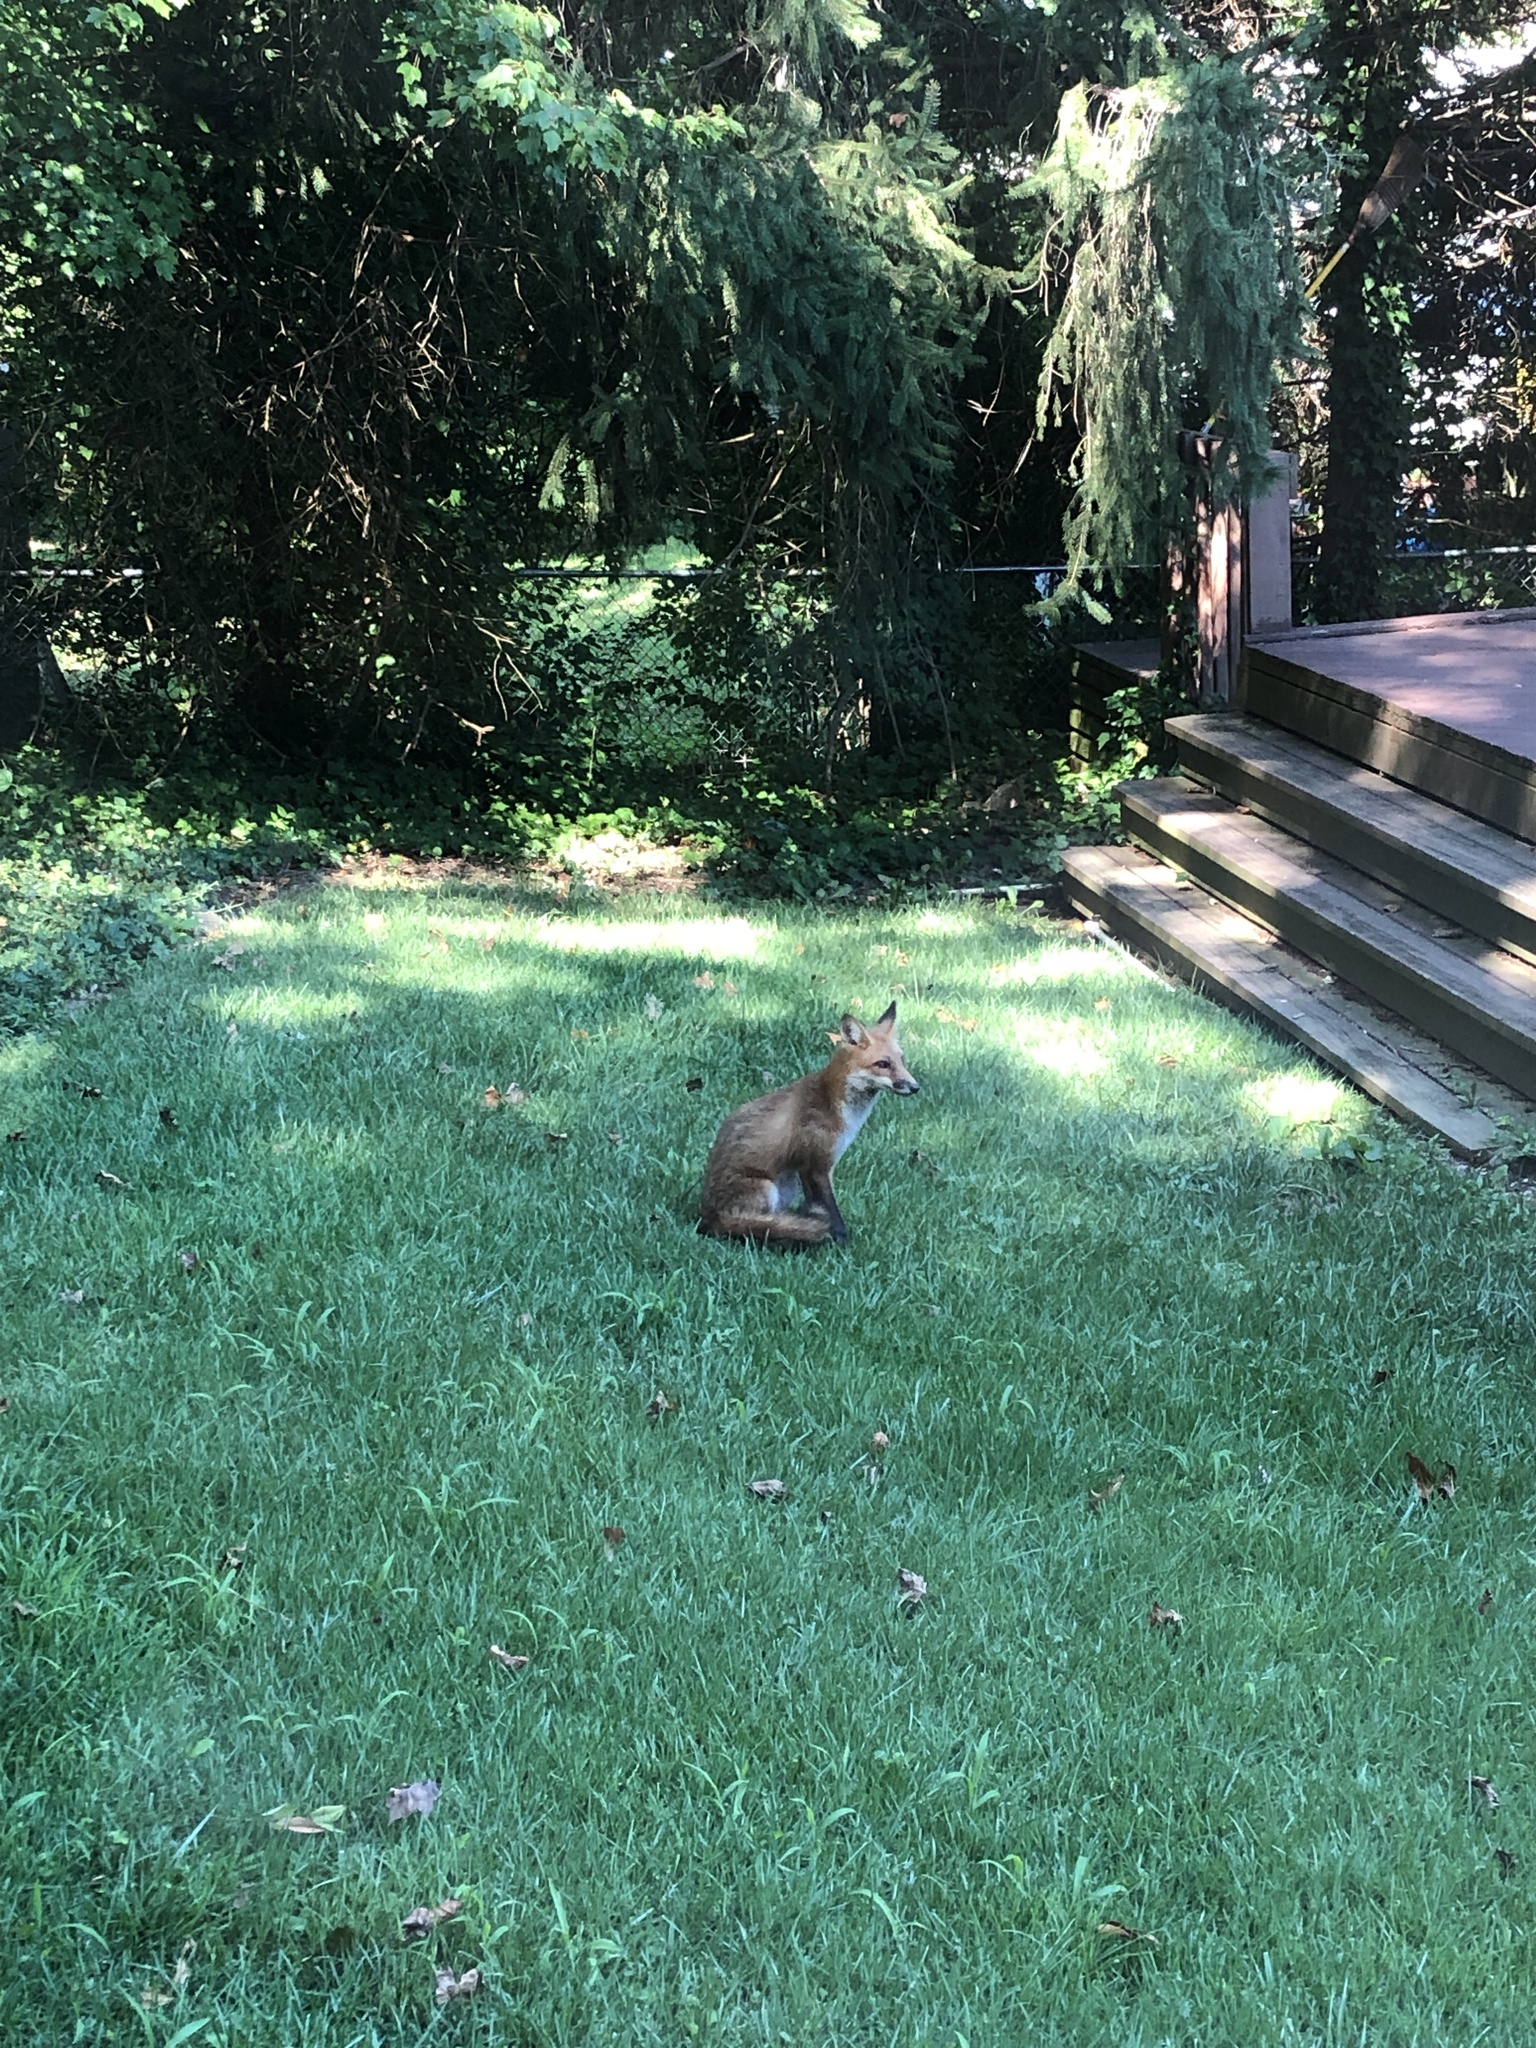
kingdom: Animalia
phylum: Chordata
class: Mammalia
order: Carnivora
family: Canidae
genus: Vulpes
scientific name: Vulpes vulpes
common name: Red fox
